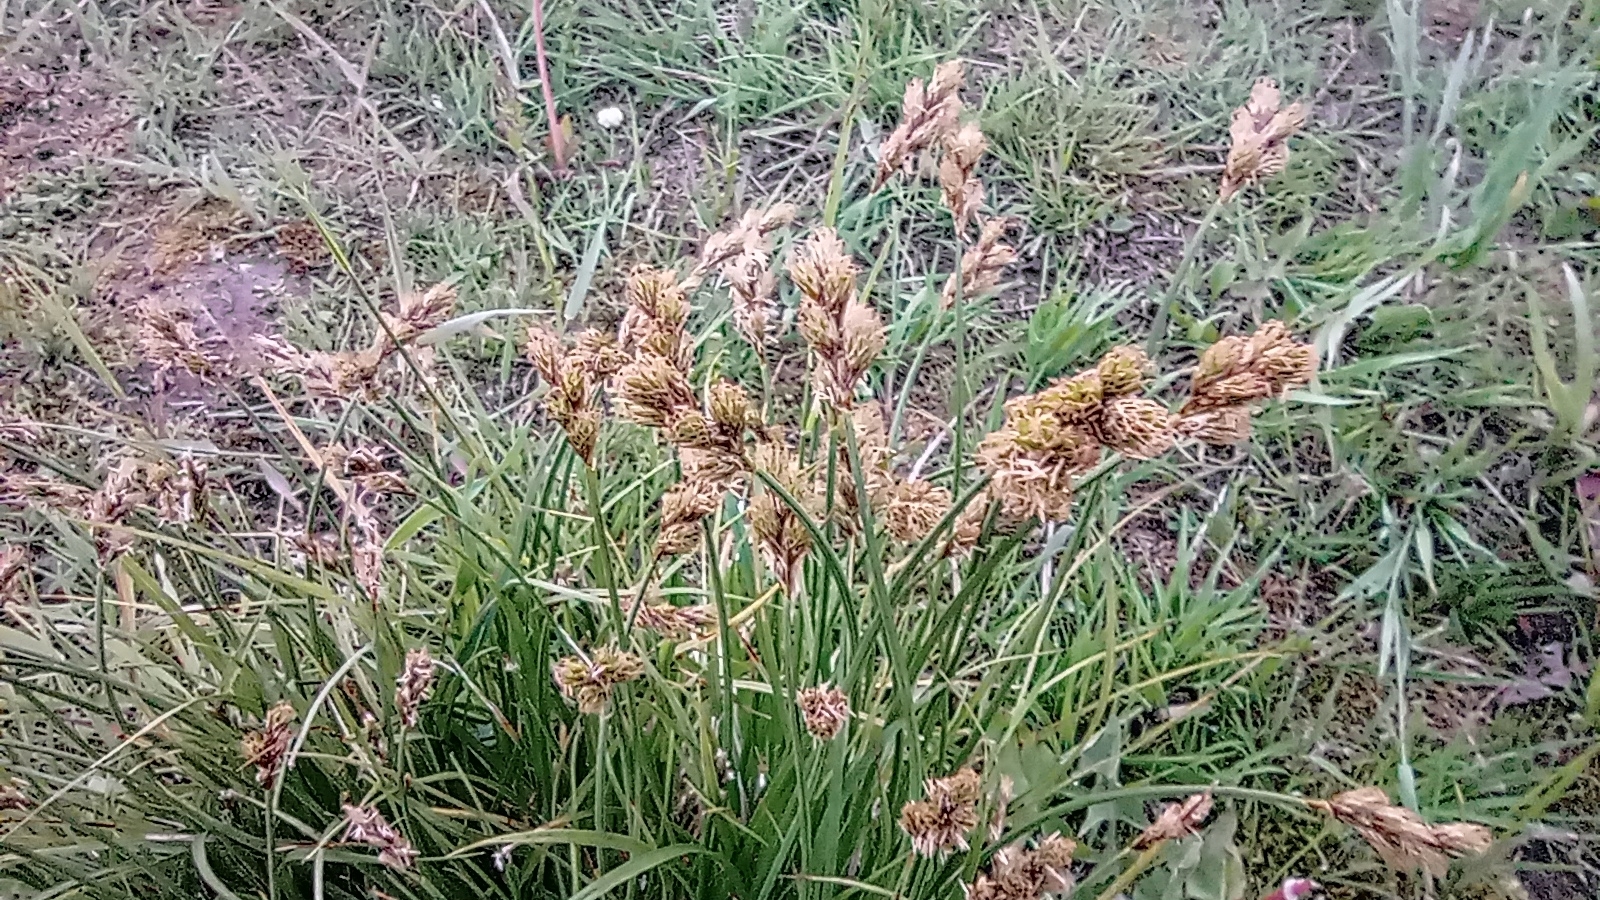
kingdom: Plantae
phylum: Tracheophyta
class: Liliopsida
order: Poales
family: Cyperaceae
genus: Carex
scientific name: Carex leporina
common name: Oval sedge
